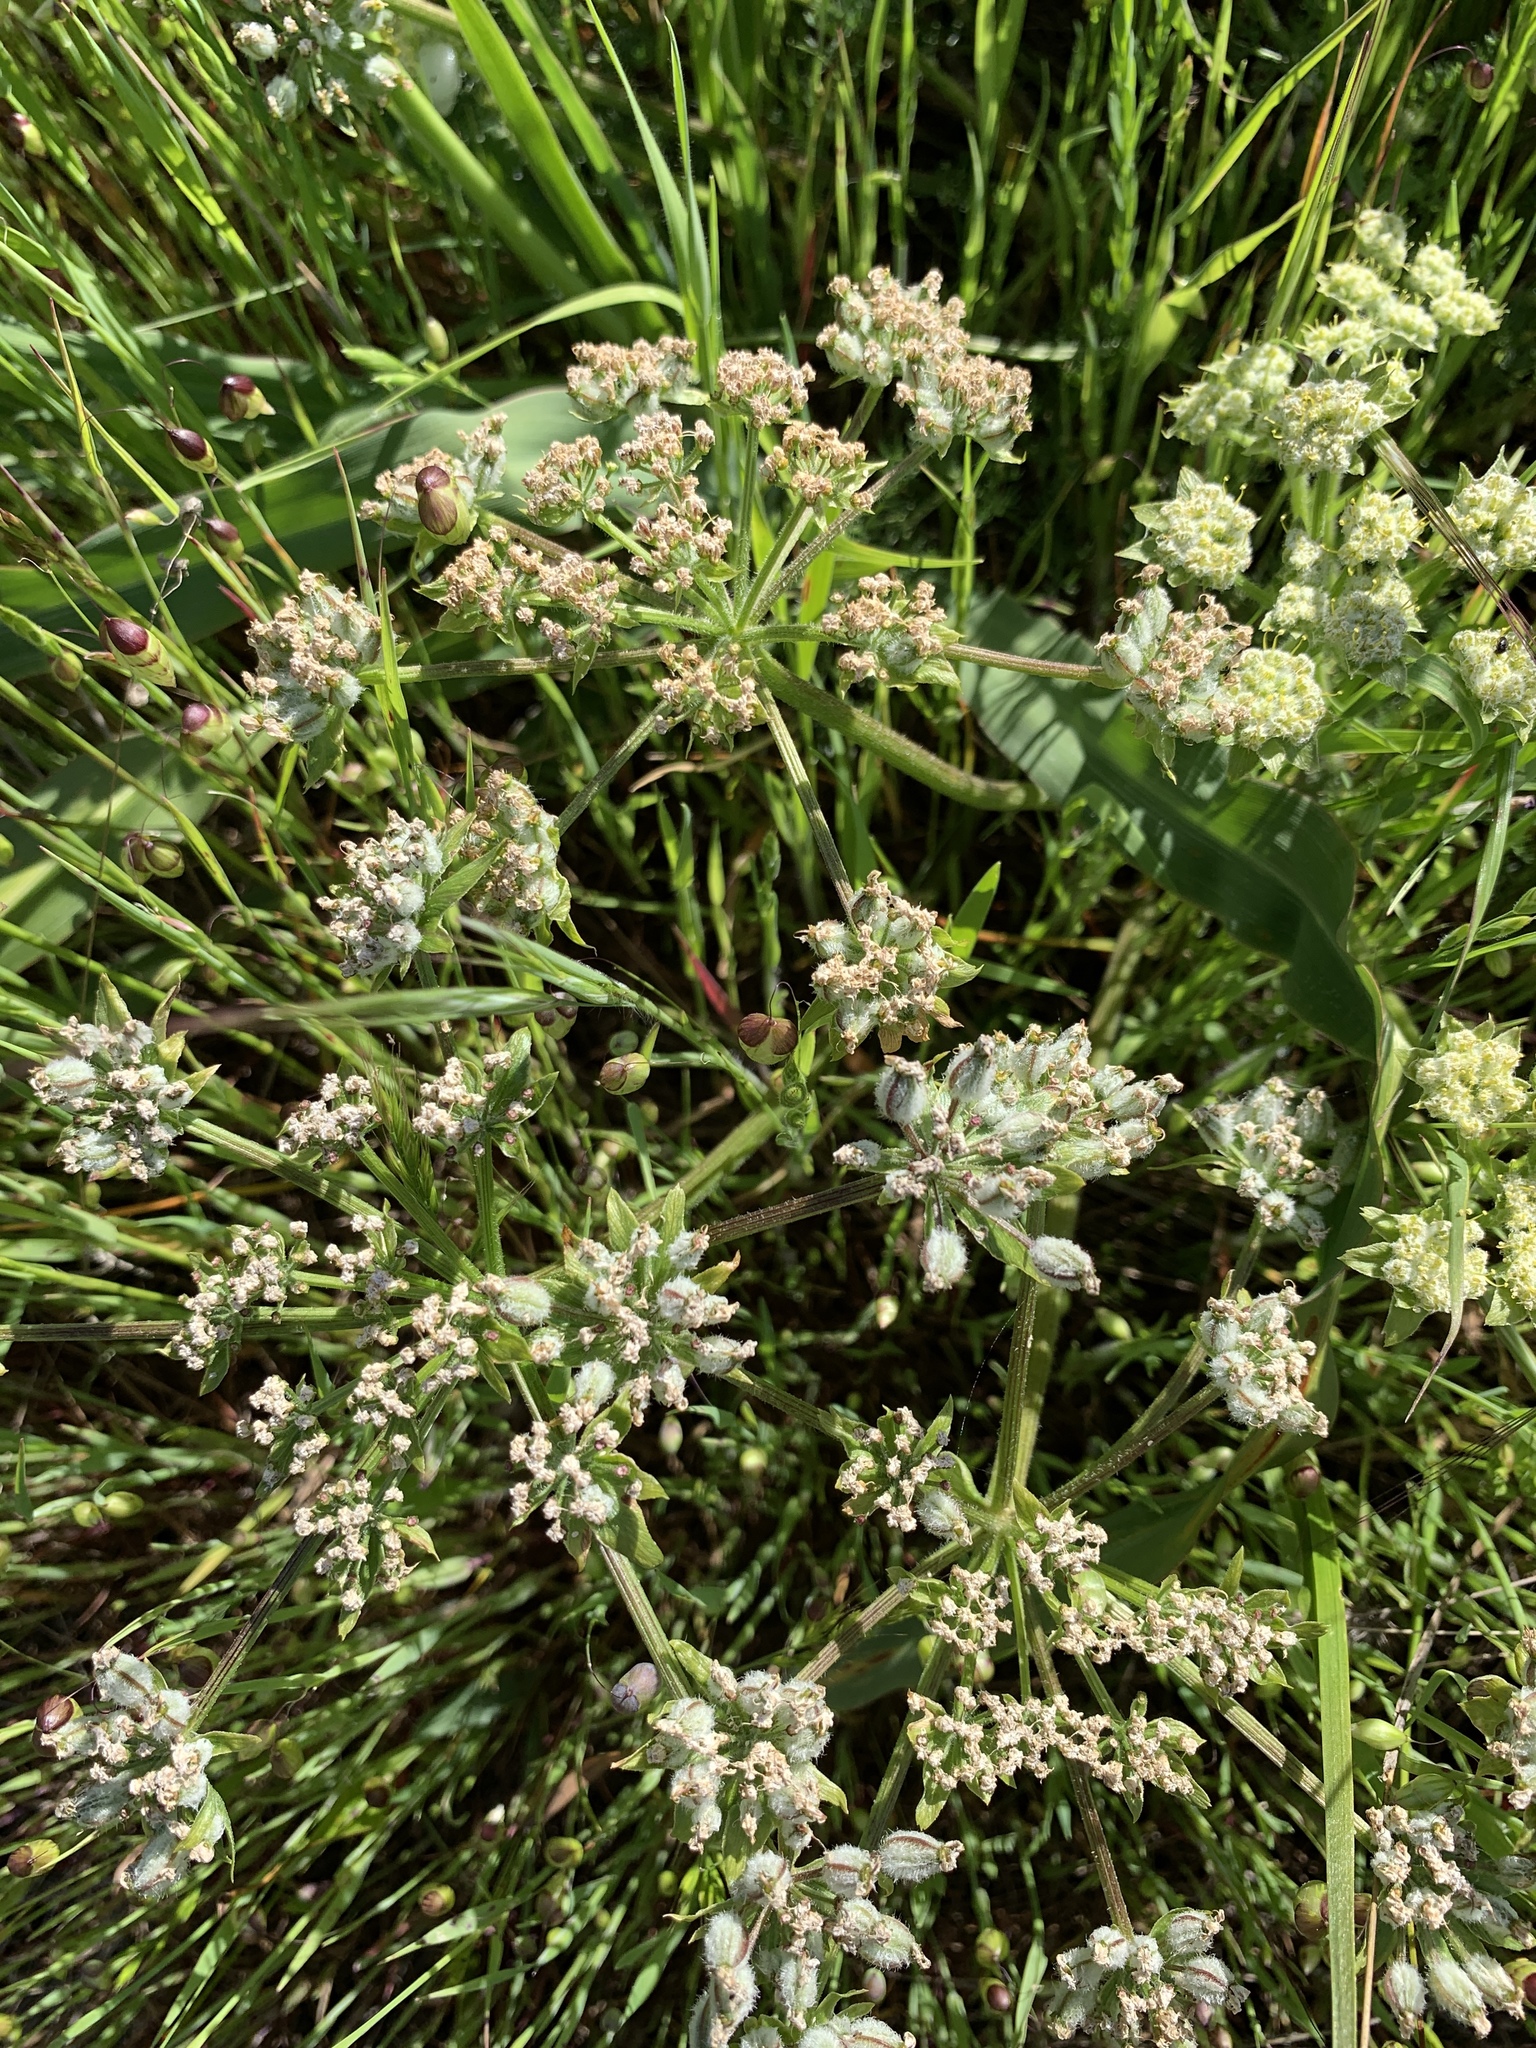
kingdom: Plantae
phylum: Tracheophyta
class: Magnoliopsida
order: Apiales
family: Apiaceae
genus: Lomatium
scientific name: Lomatium dasycarpum
